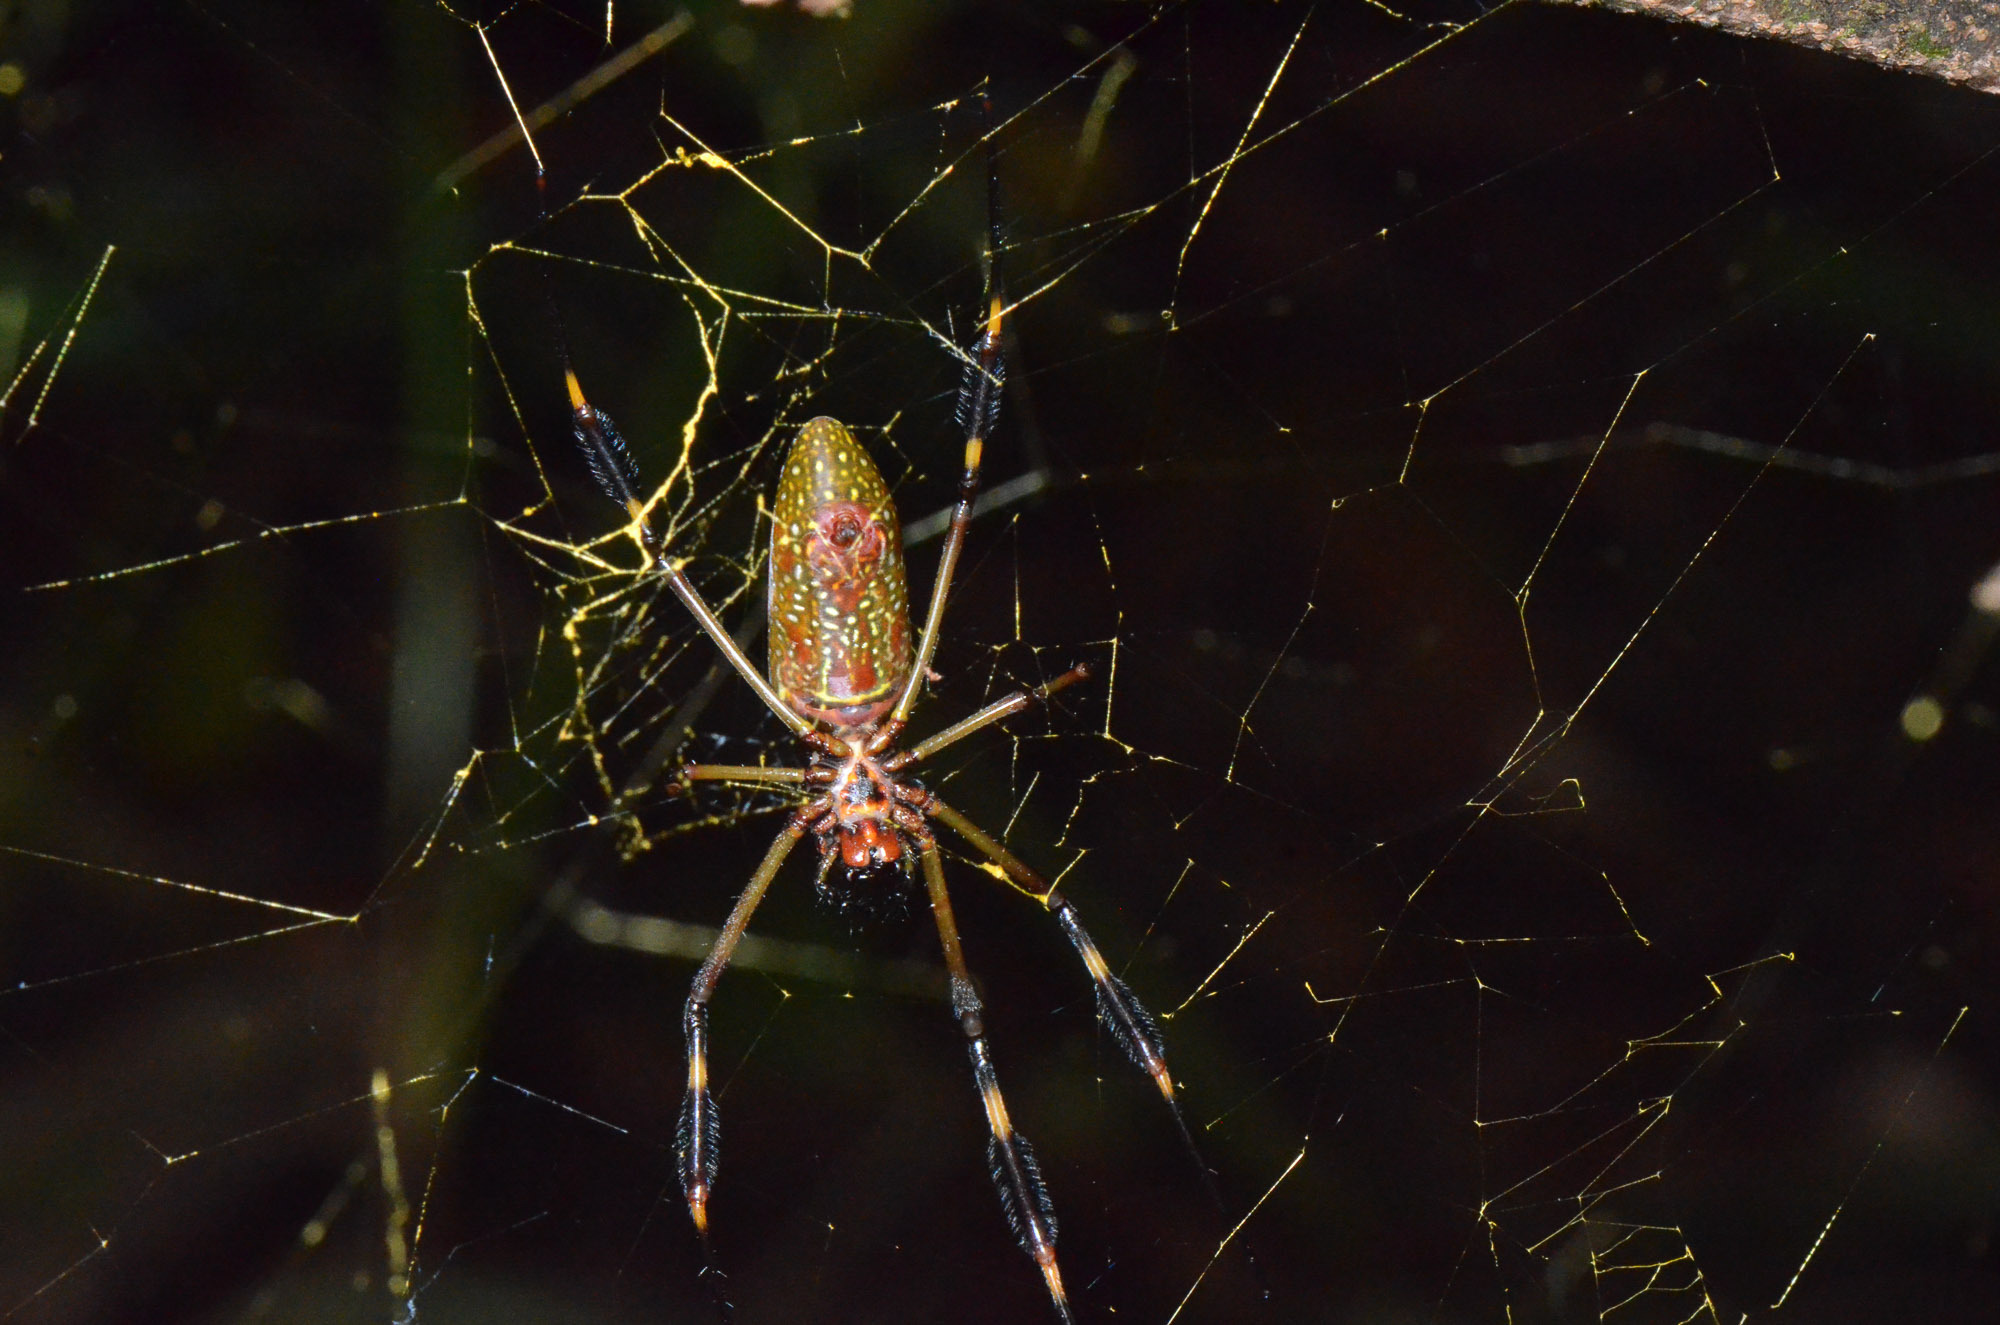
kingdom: Animalia
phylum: Arthropoda
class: Arachnida
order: Araneae
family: Araneidae
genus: Trichonephila
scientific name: Trichonephila clavipes
